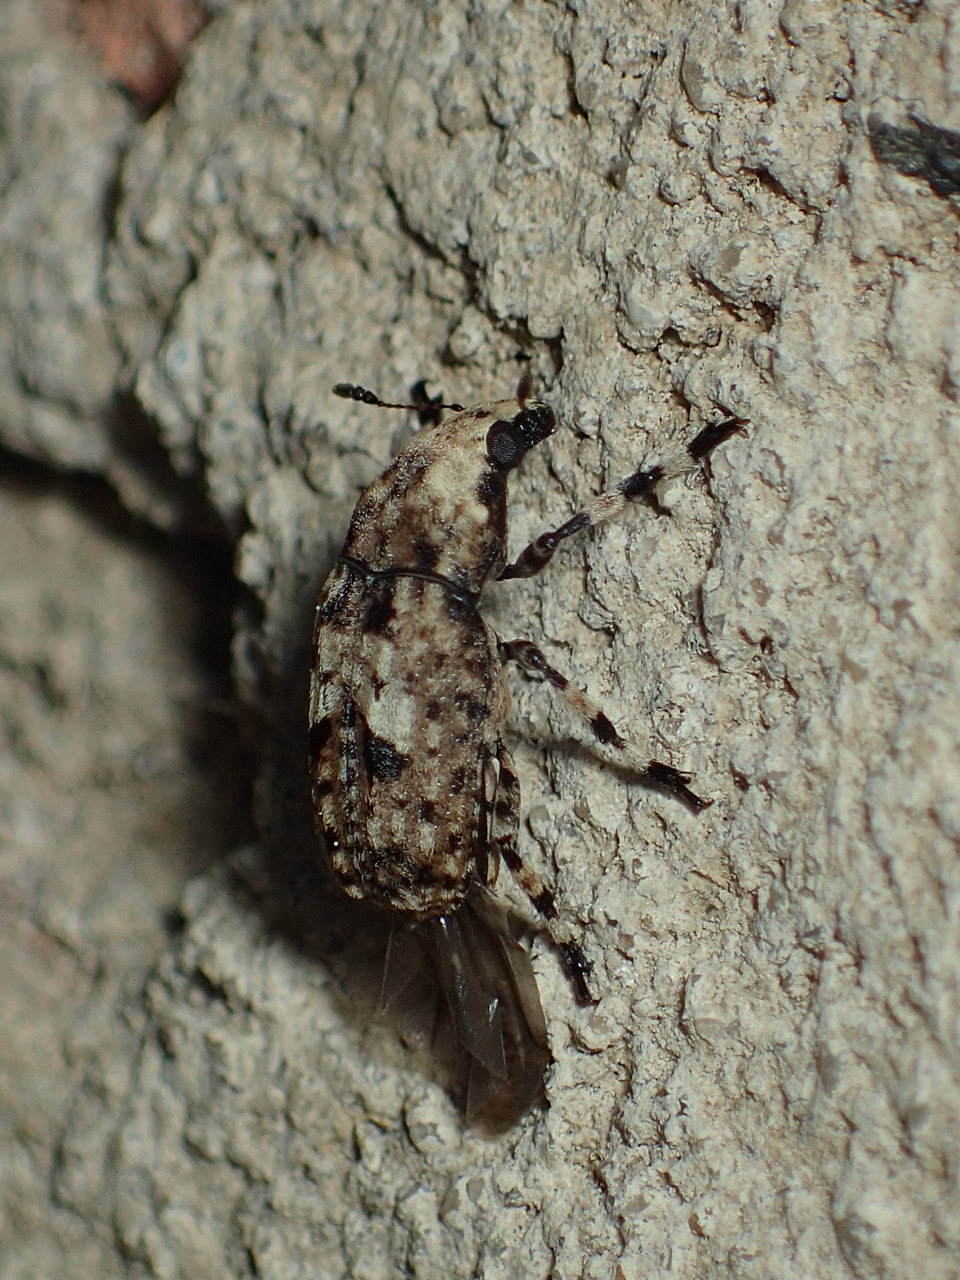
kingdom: Animalia
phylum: Arthropoda
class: Insecta
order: Coleoptera
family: Anthribidae
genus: Euparius
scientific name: Euparius marmoreus
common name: Marbled fungus weevil
